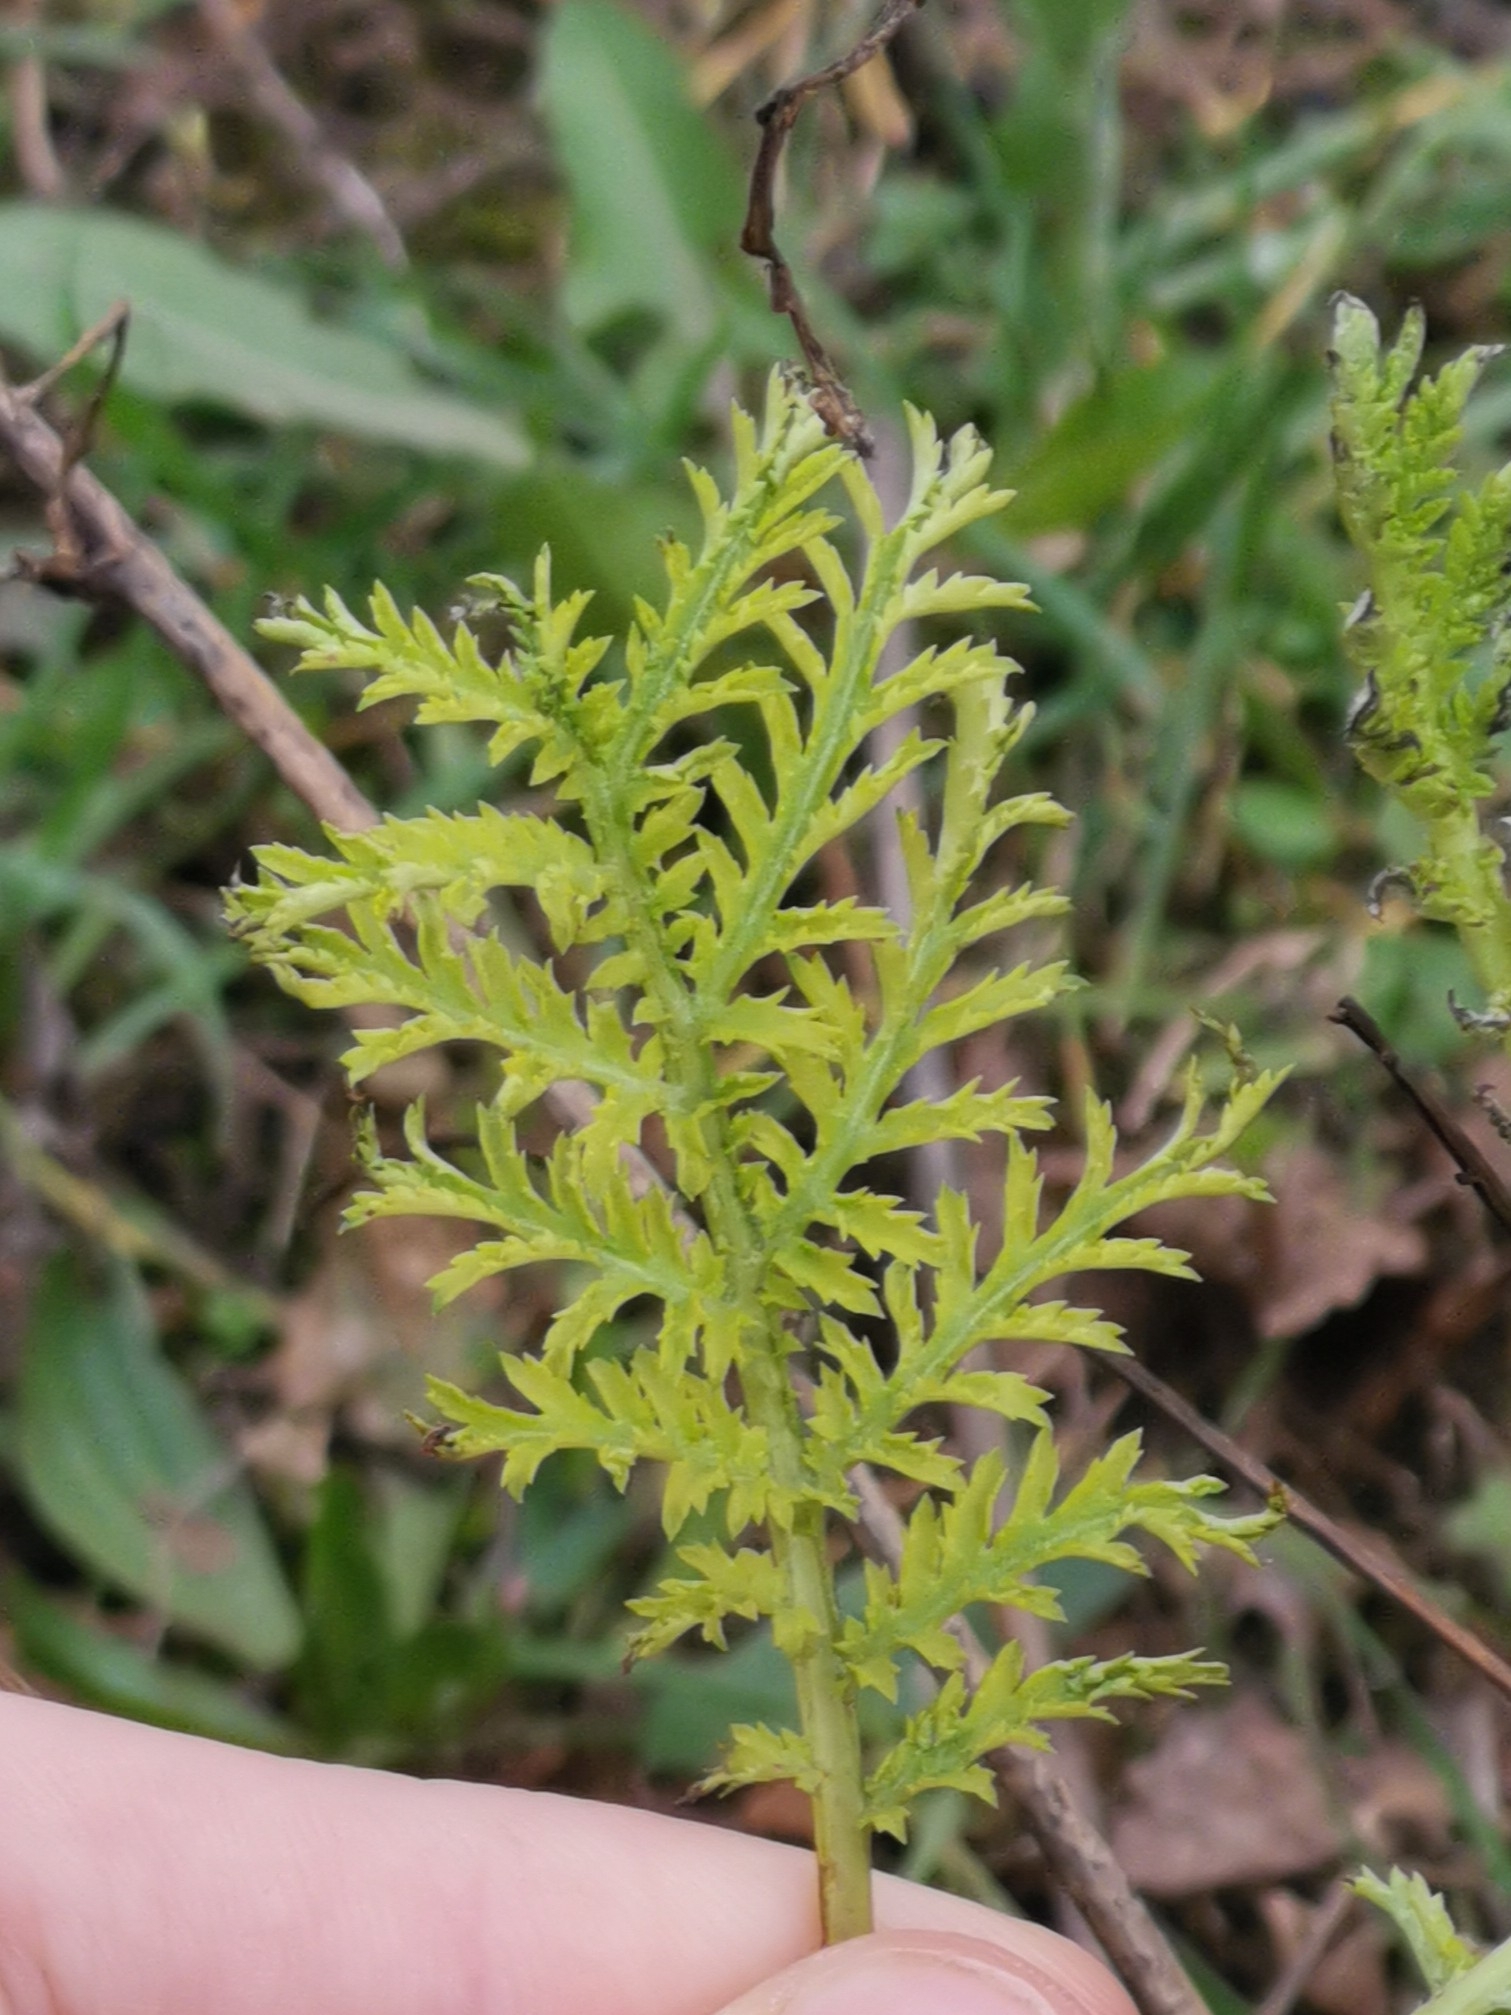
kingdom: Plantae
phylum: Tracheophyta
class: Magnoliopsida
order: Asterales
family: Asteraceae
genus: Tanacetum
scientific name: Tanacetum vulgare
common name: Common tansy
